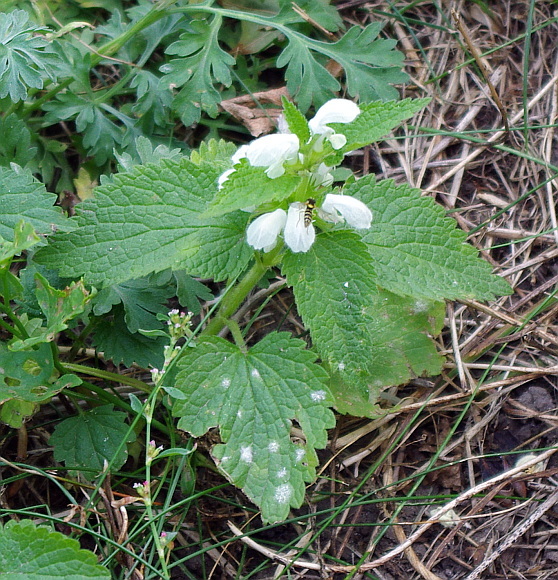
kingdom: Plantae
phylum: Tracheophyta
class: Magnoliopsida
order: Lamiales
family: Lamiaceae
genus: Lamium
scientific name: Lamium album
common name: White dead-nettle
